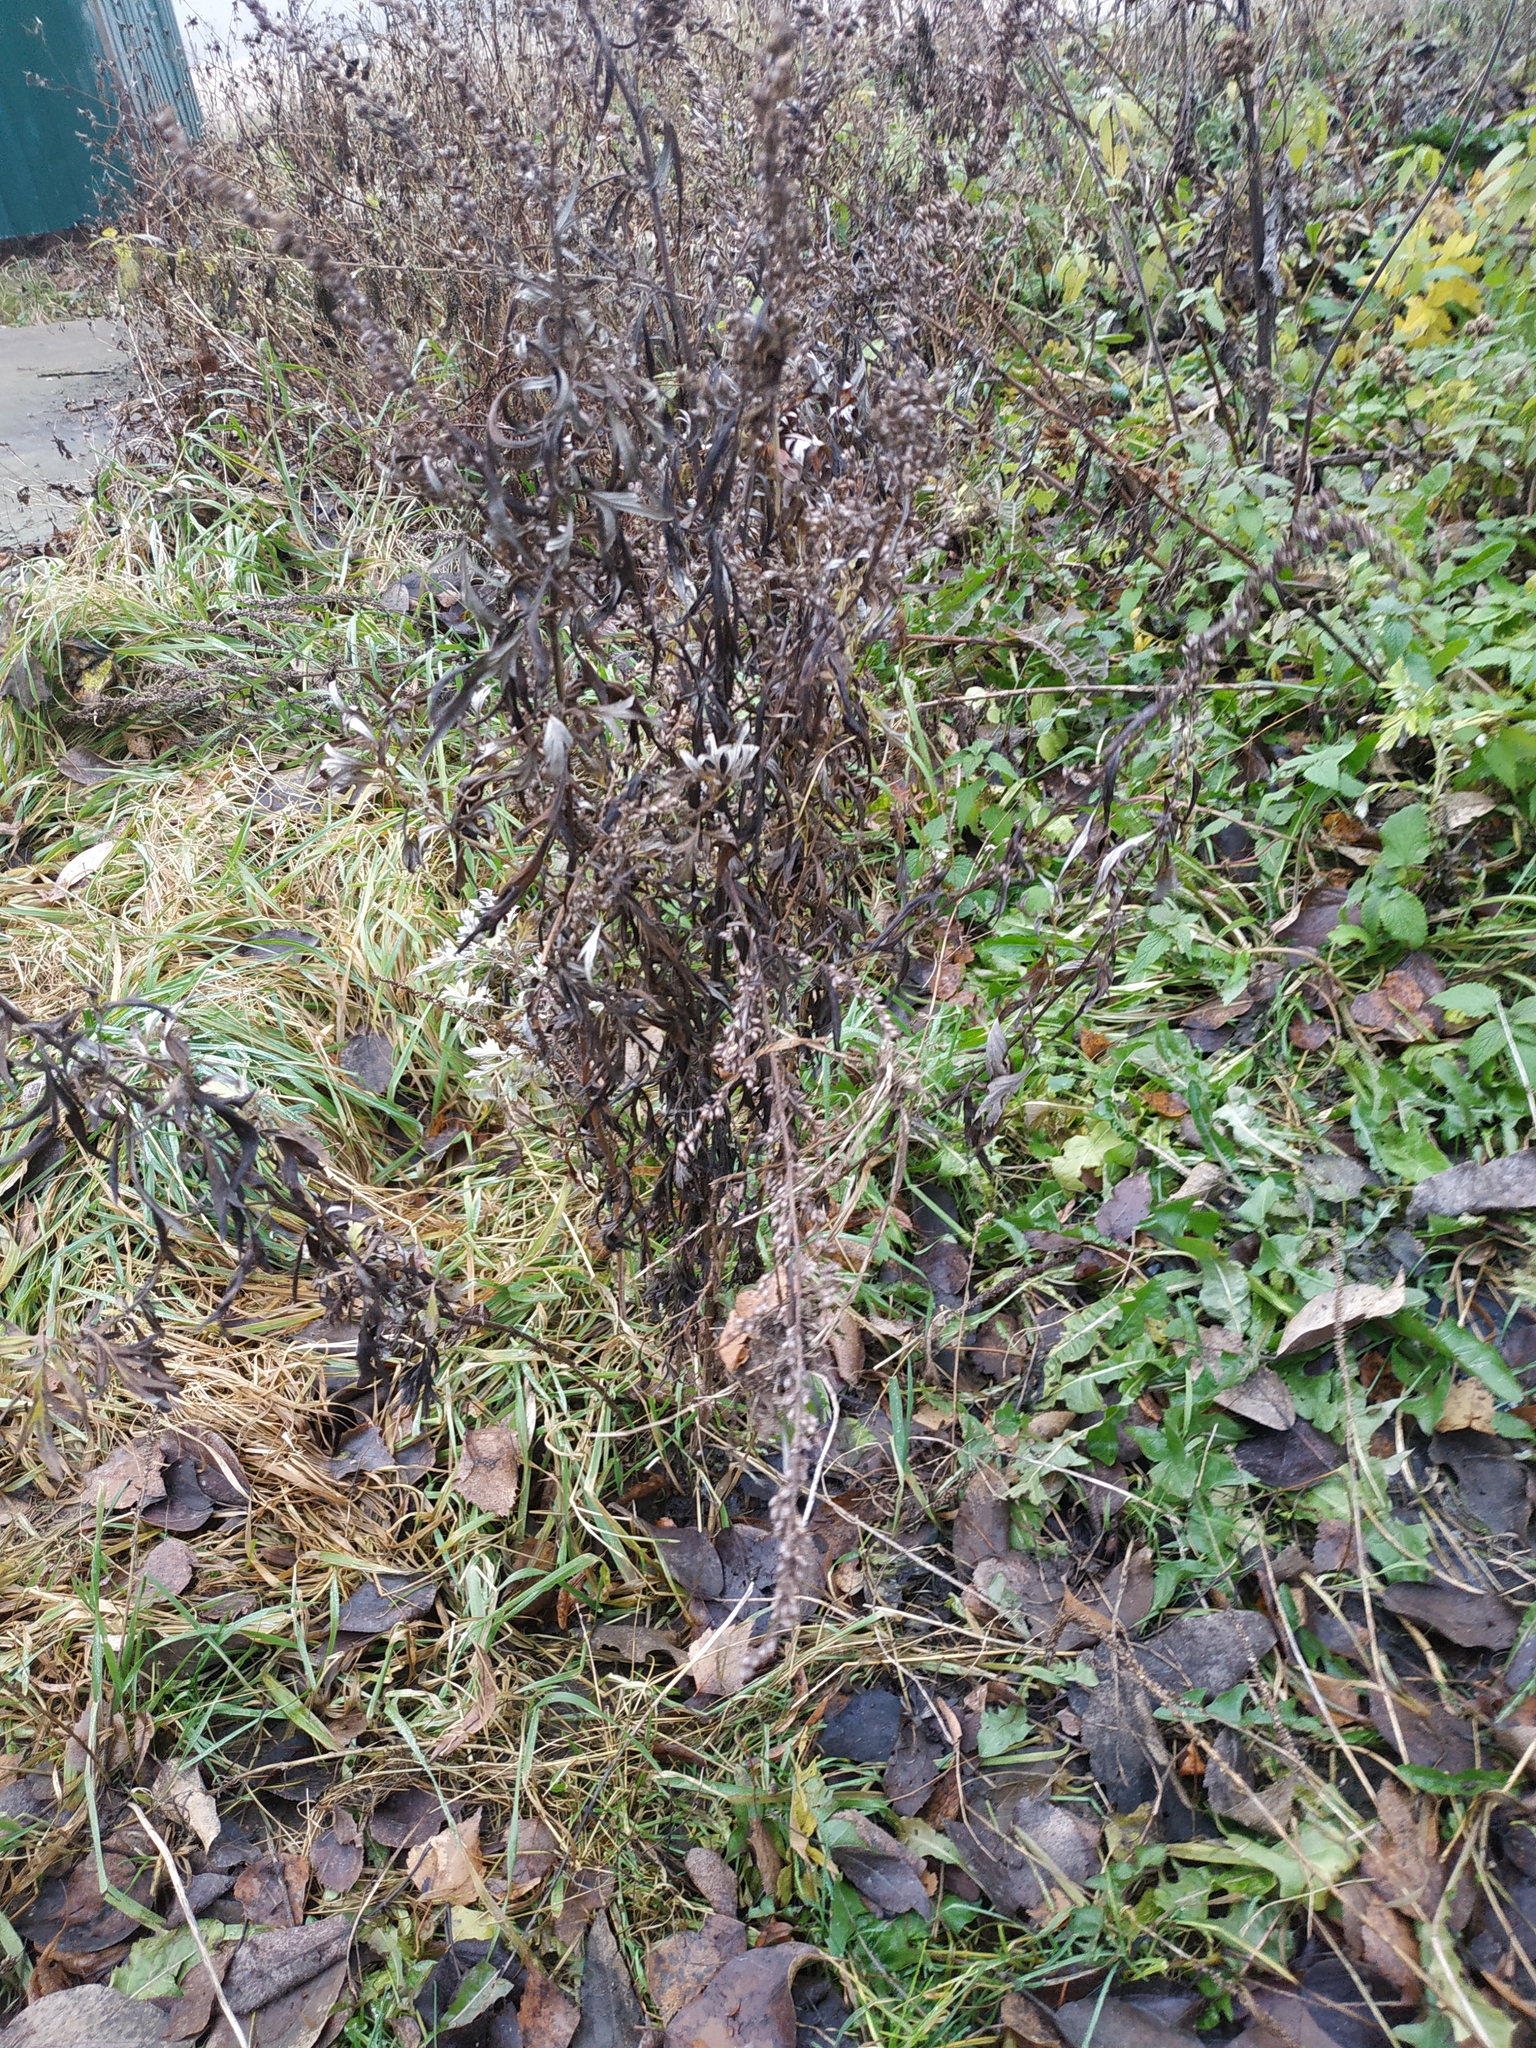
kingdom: Plantae
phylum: Tracheophyta
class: Magnoliopsida
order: Asterales
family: Asteraceae
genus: Artemisia
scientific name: Artemisia vulgaris
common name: Mugwort
